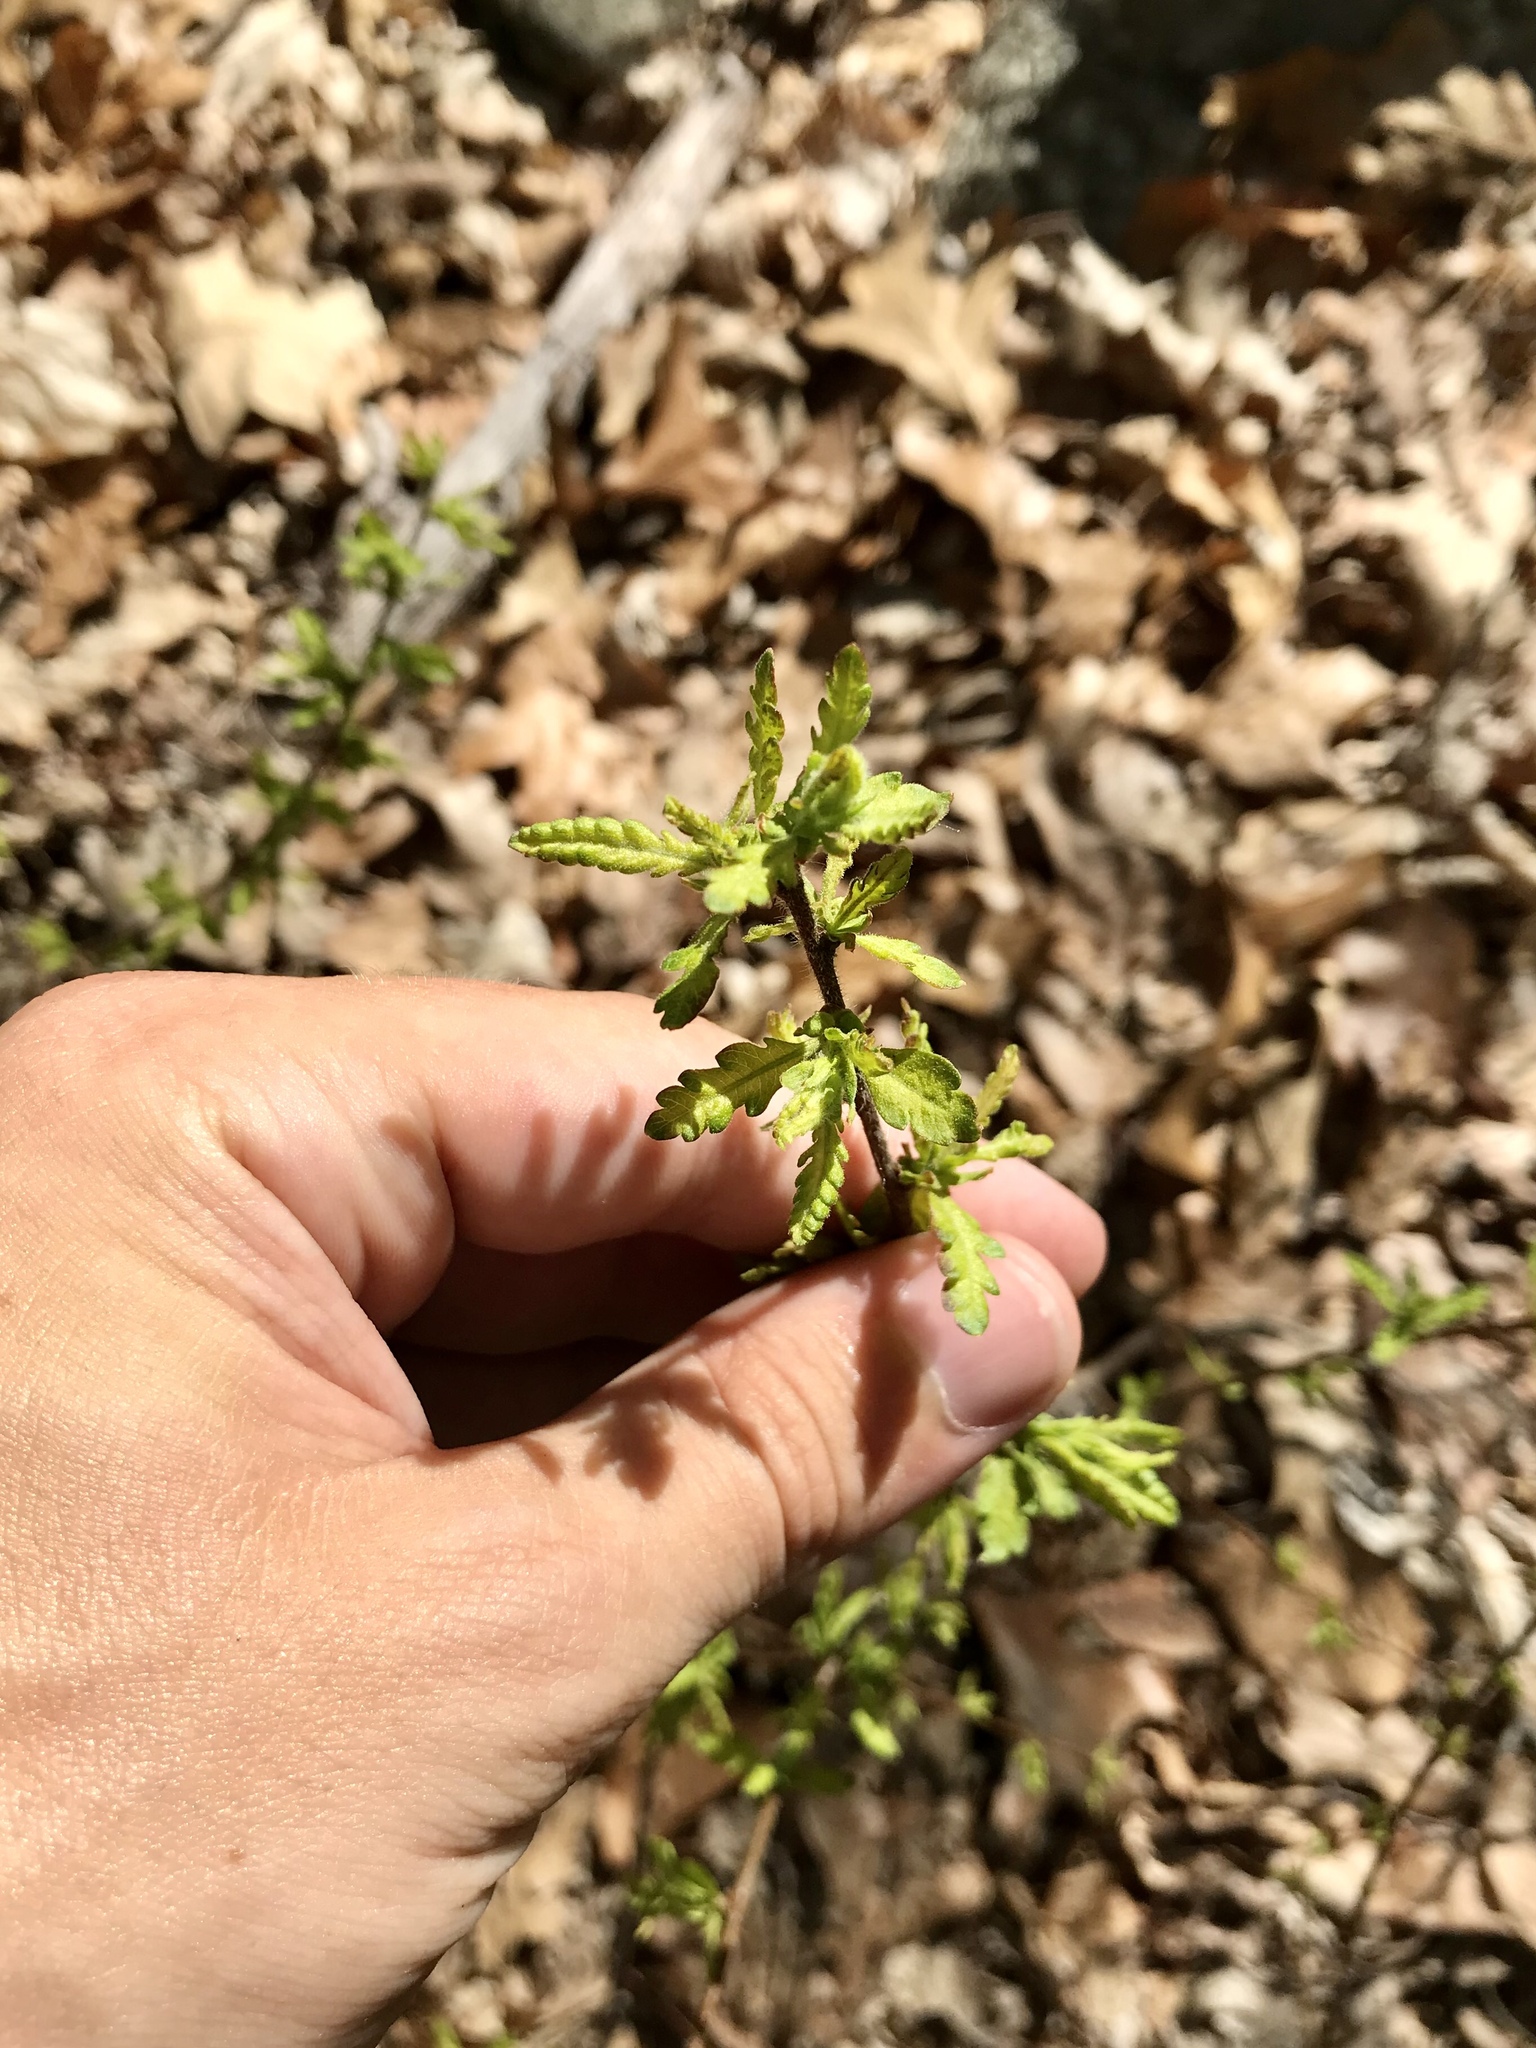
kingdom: Plantae
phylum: Tracheophyta
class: Magnoliopsida
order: Fagales
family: Myricaceae
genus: Comptonia
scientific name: Comptonia peregrina
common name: Sweet-fern
